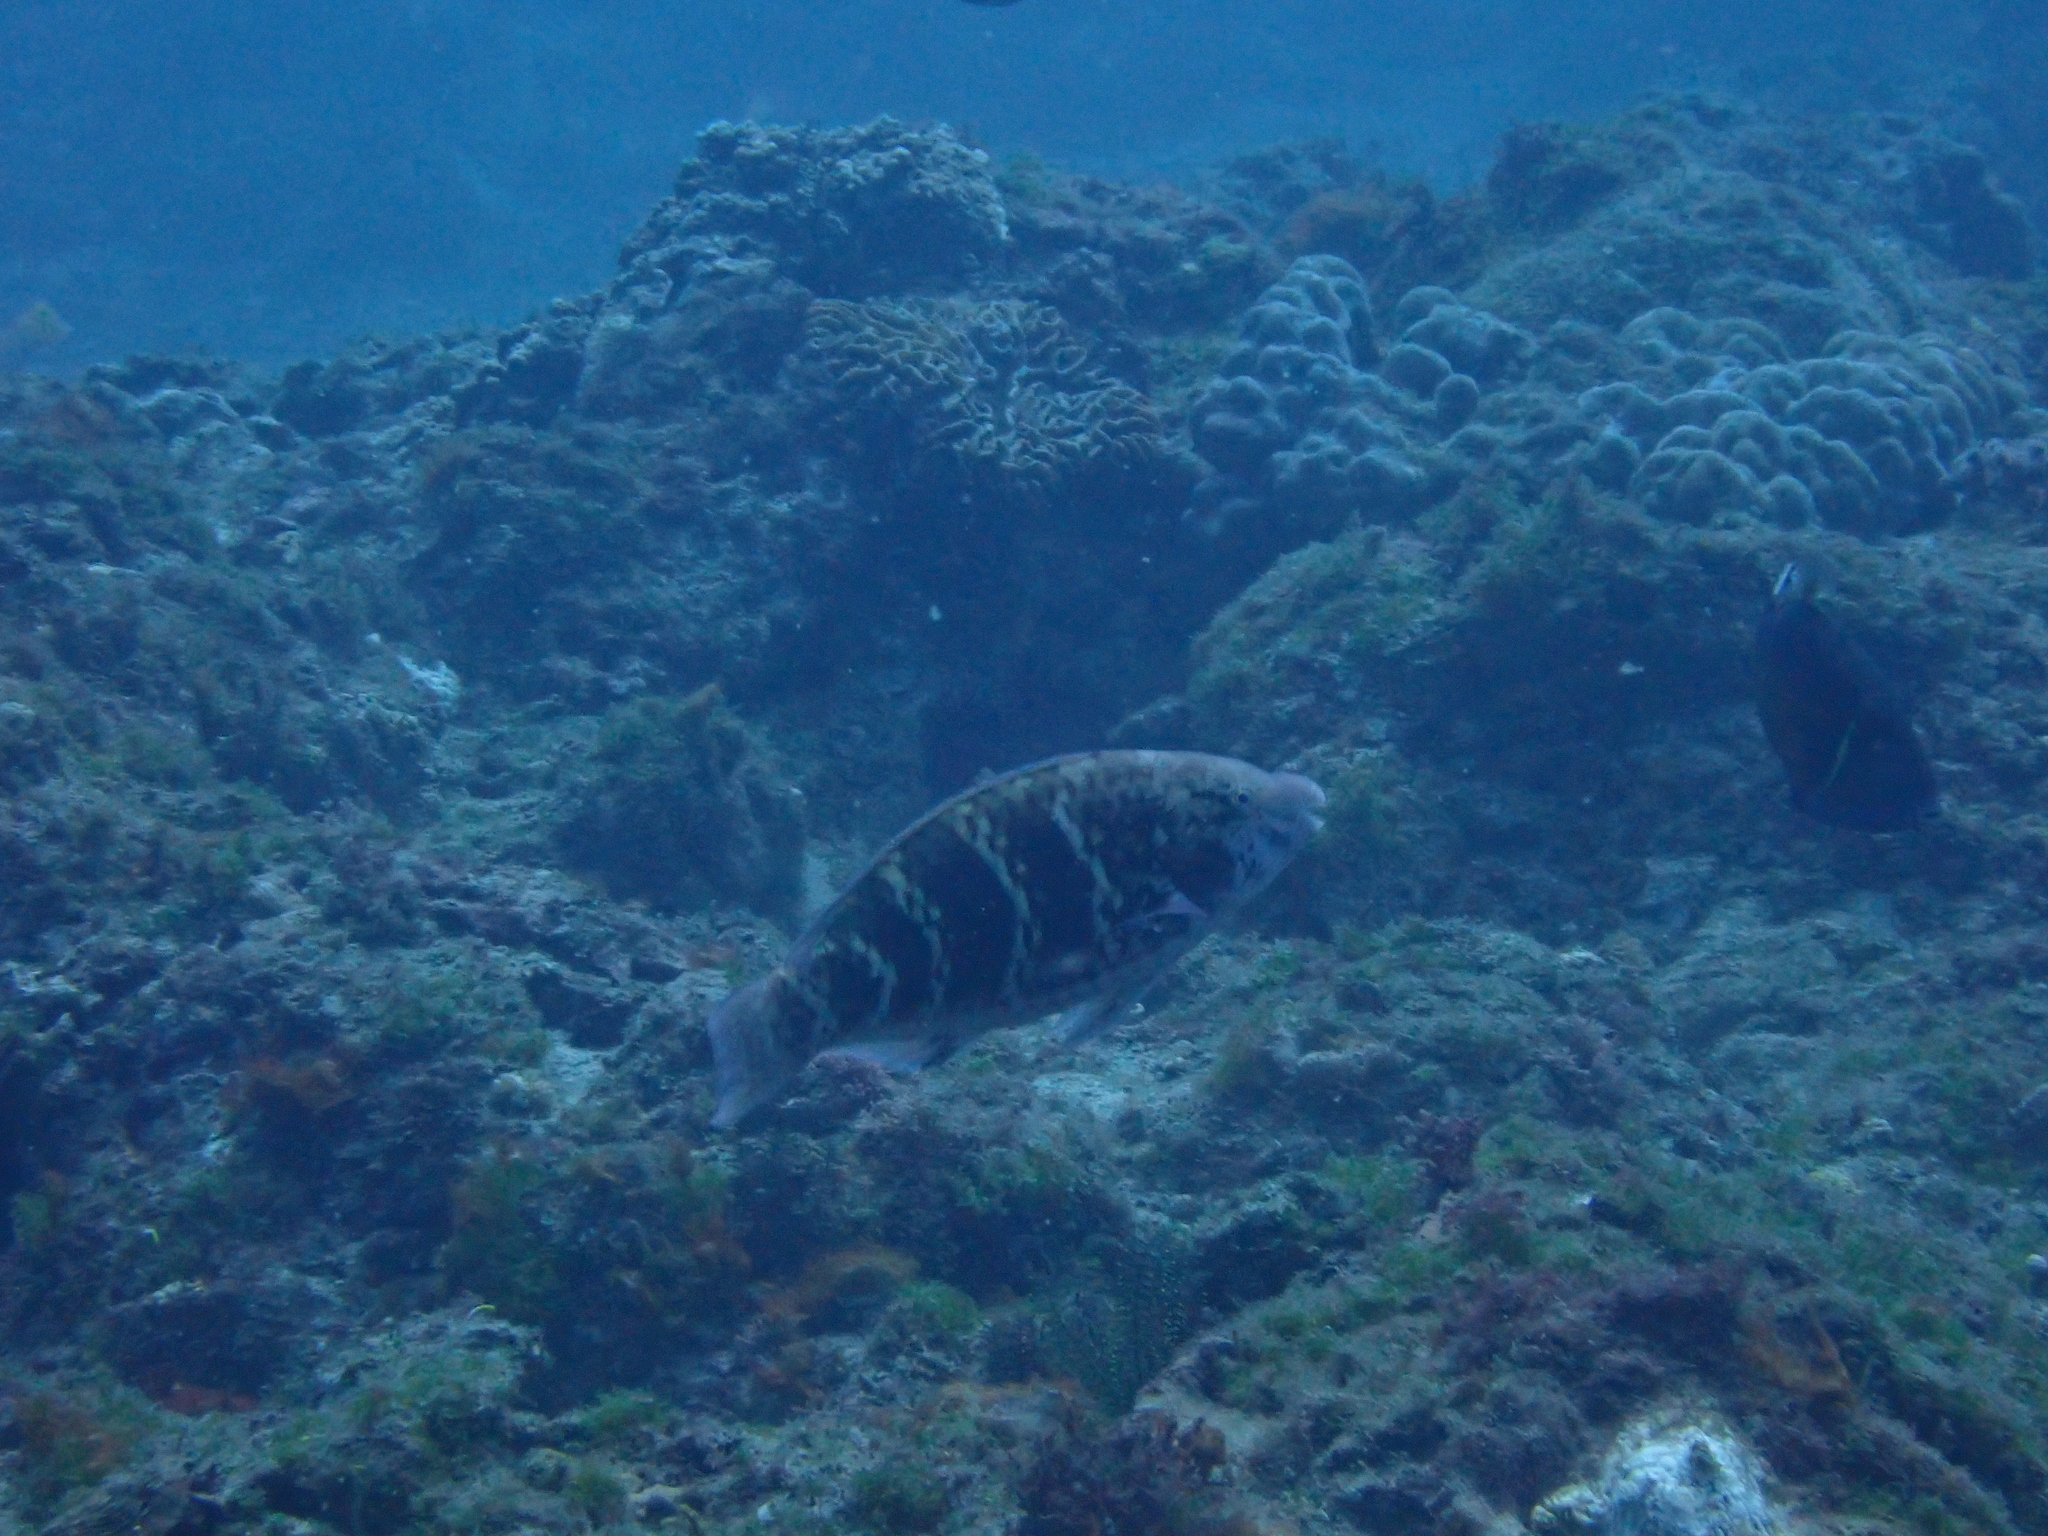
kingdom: Animalia
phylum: Chordata
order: Perciformes
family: Scaridae
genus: Scarus
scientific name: Scarus schlegeli
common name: Schlegel's parrotfish
